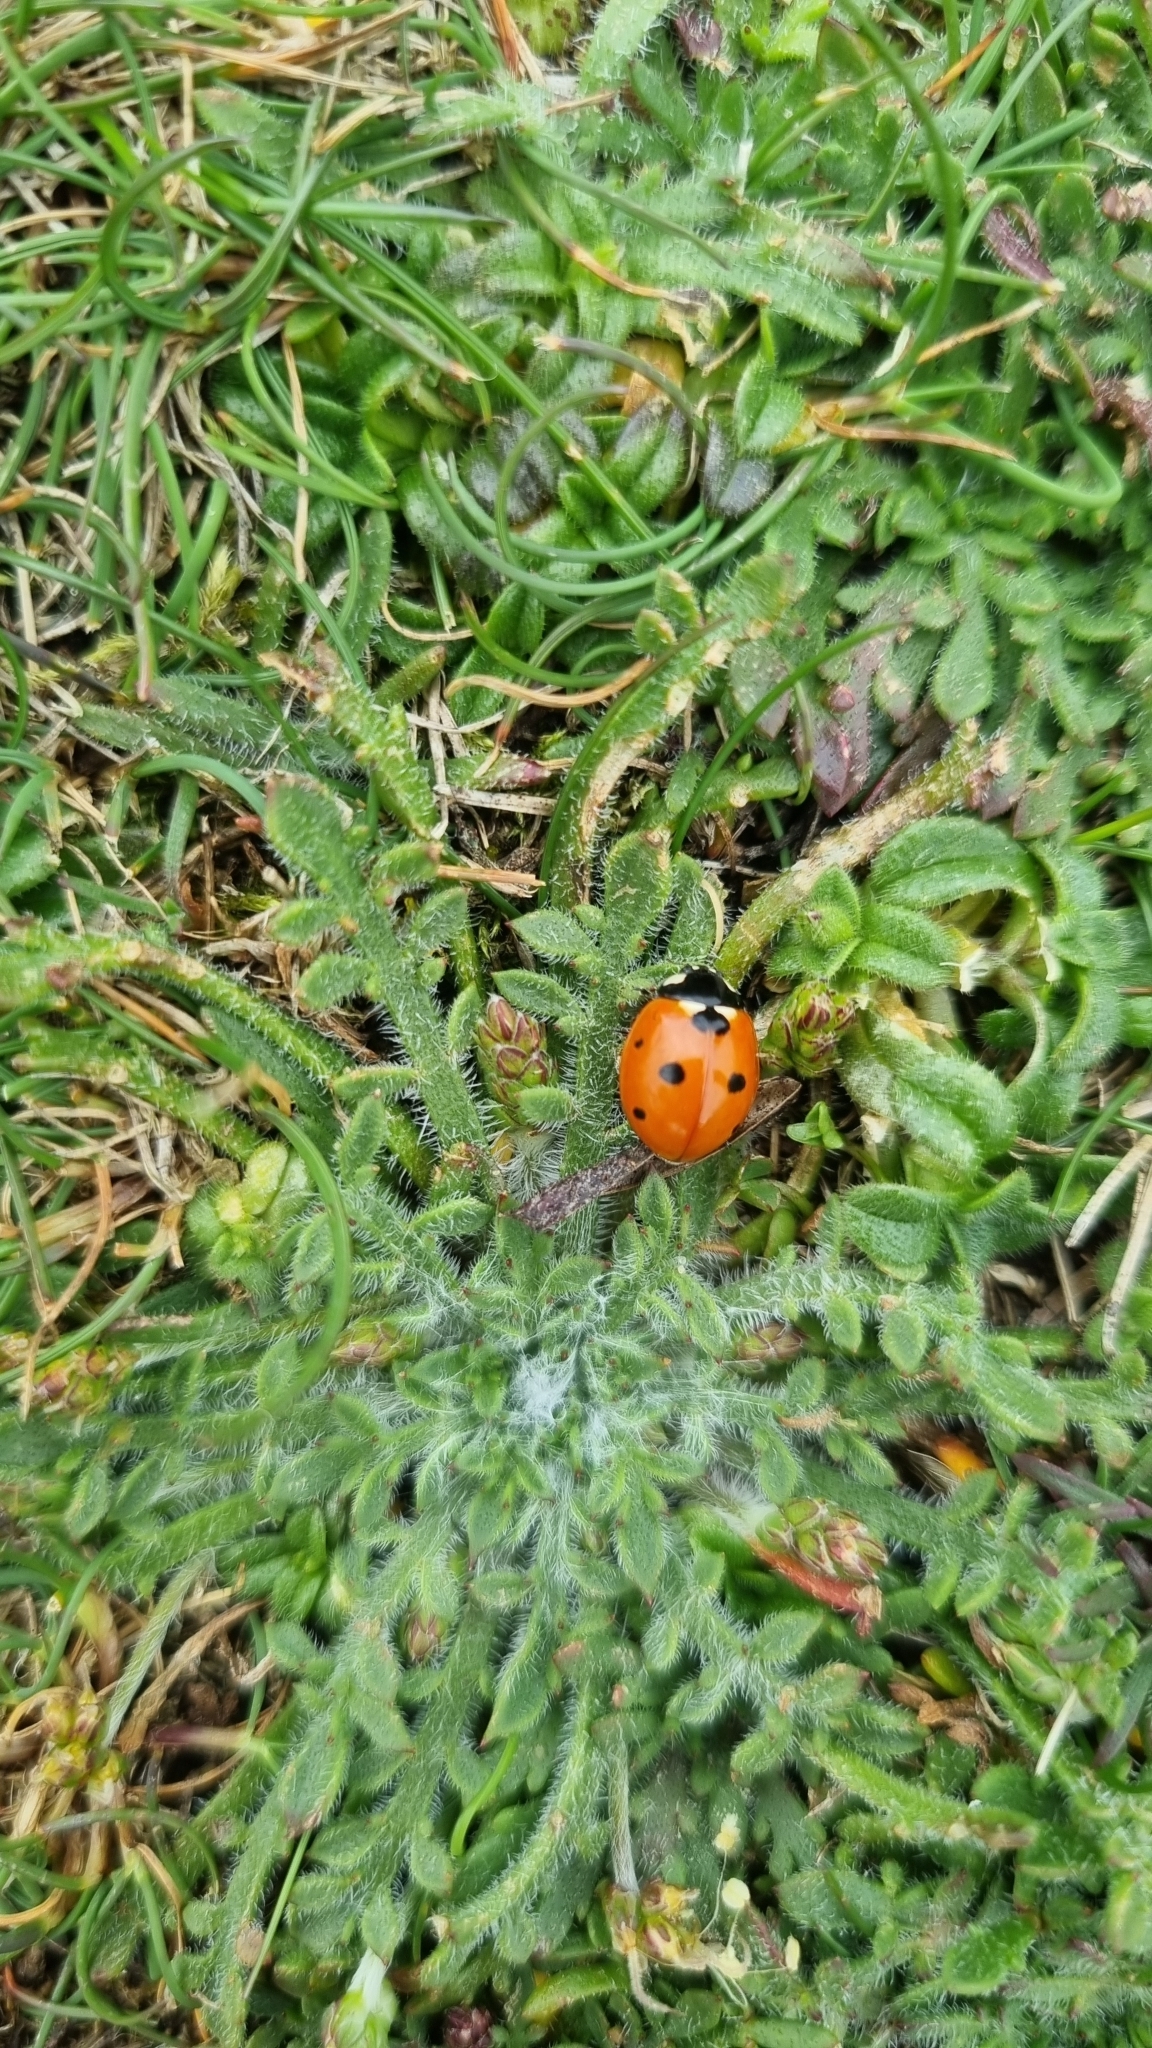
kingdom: Animalia
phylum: Arthropoda
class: Insecta
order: Coleoptera
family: Coccinellidae
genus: Coccinella
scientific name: Coccinella septempunctata
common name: Sevenspotted lady beetle
